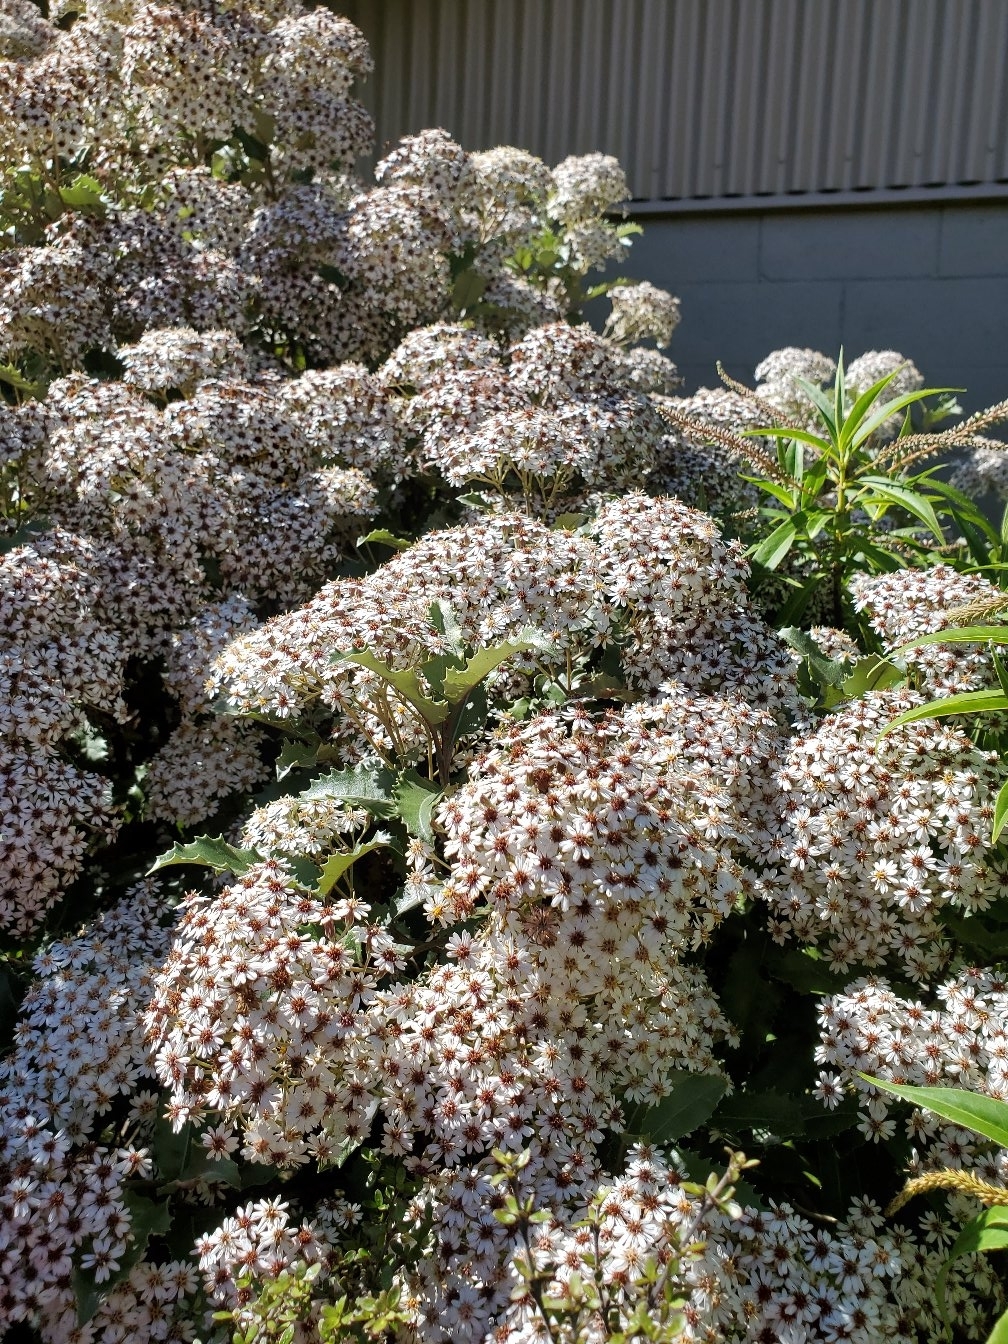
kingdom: Plantae
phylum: Tracheophyta
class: Magnoliopsida
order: Asterales
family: Asteraceae
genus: Olearia
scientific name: Olearia macrodonta
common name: New zealand holly
